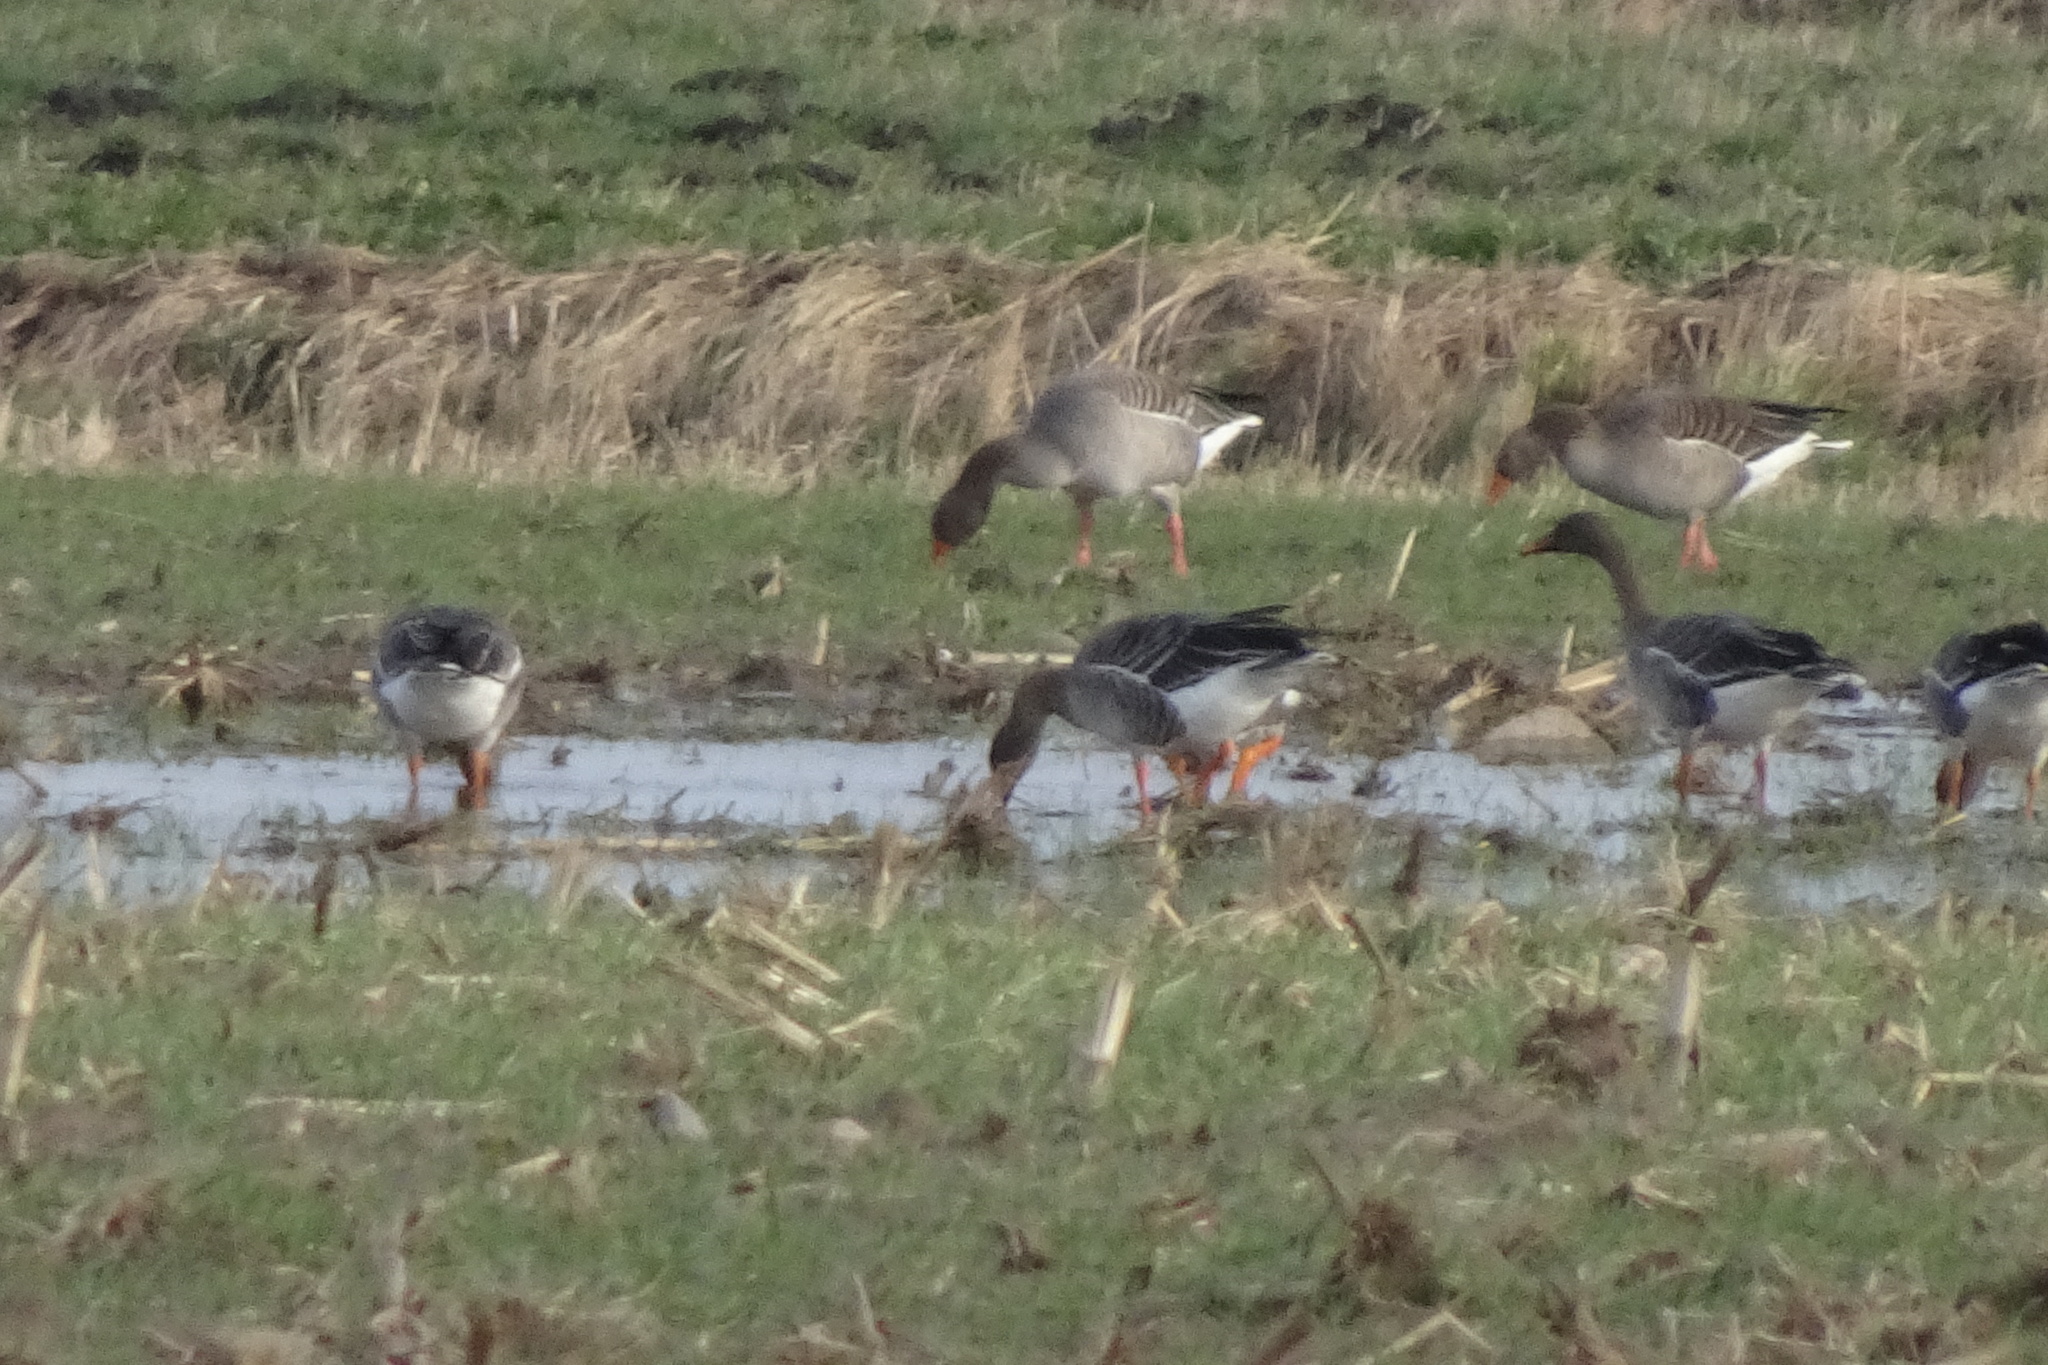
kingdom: Animalia
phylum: Chordata
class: Aves
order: Anseriformes
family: Anatidae
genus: Anser
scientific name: Anser anser
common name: Greylag goose
